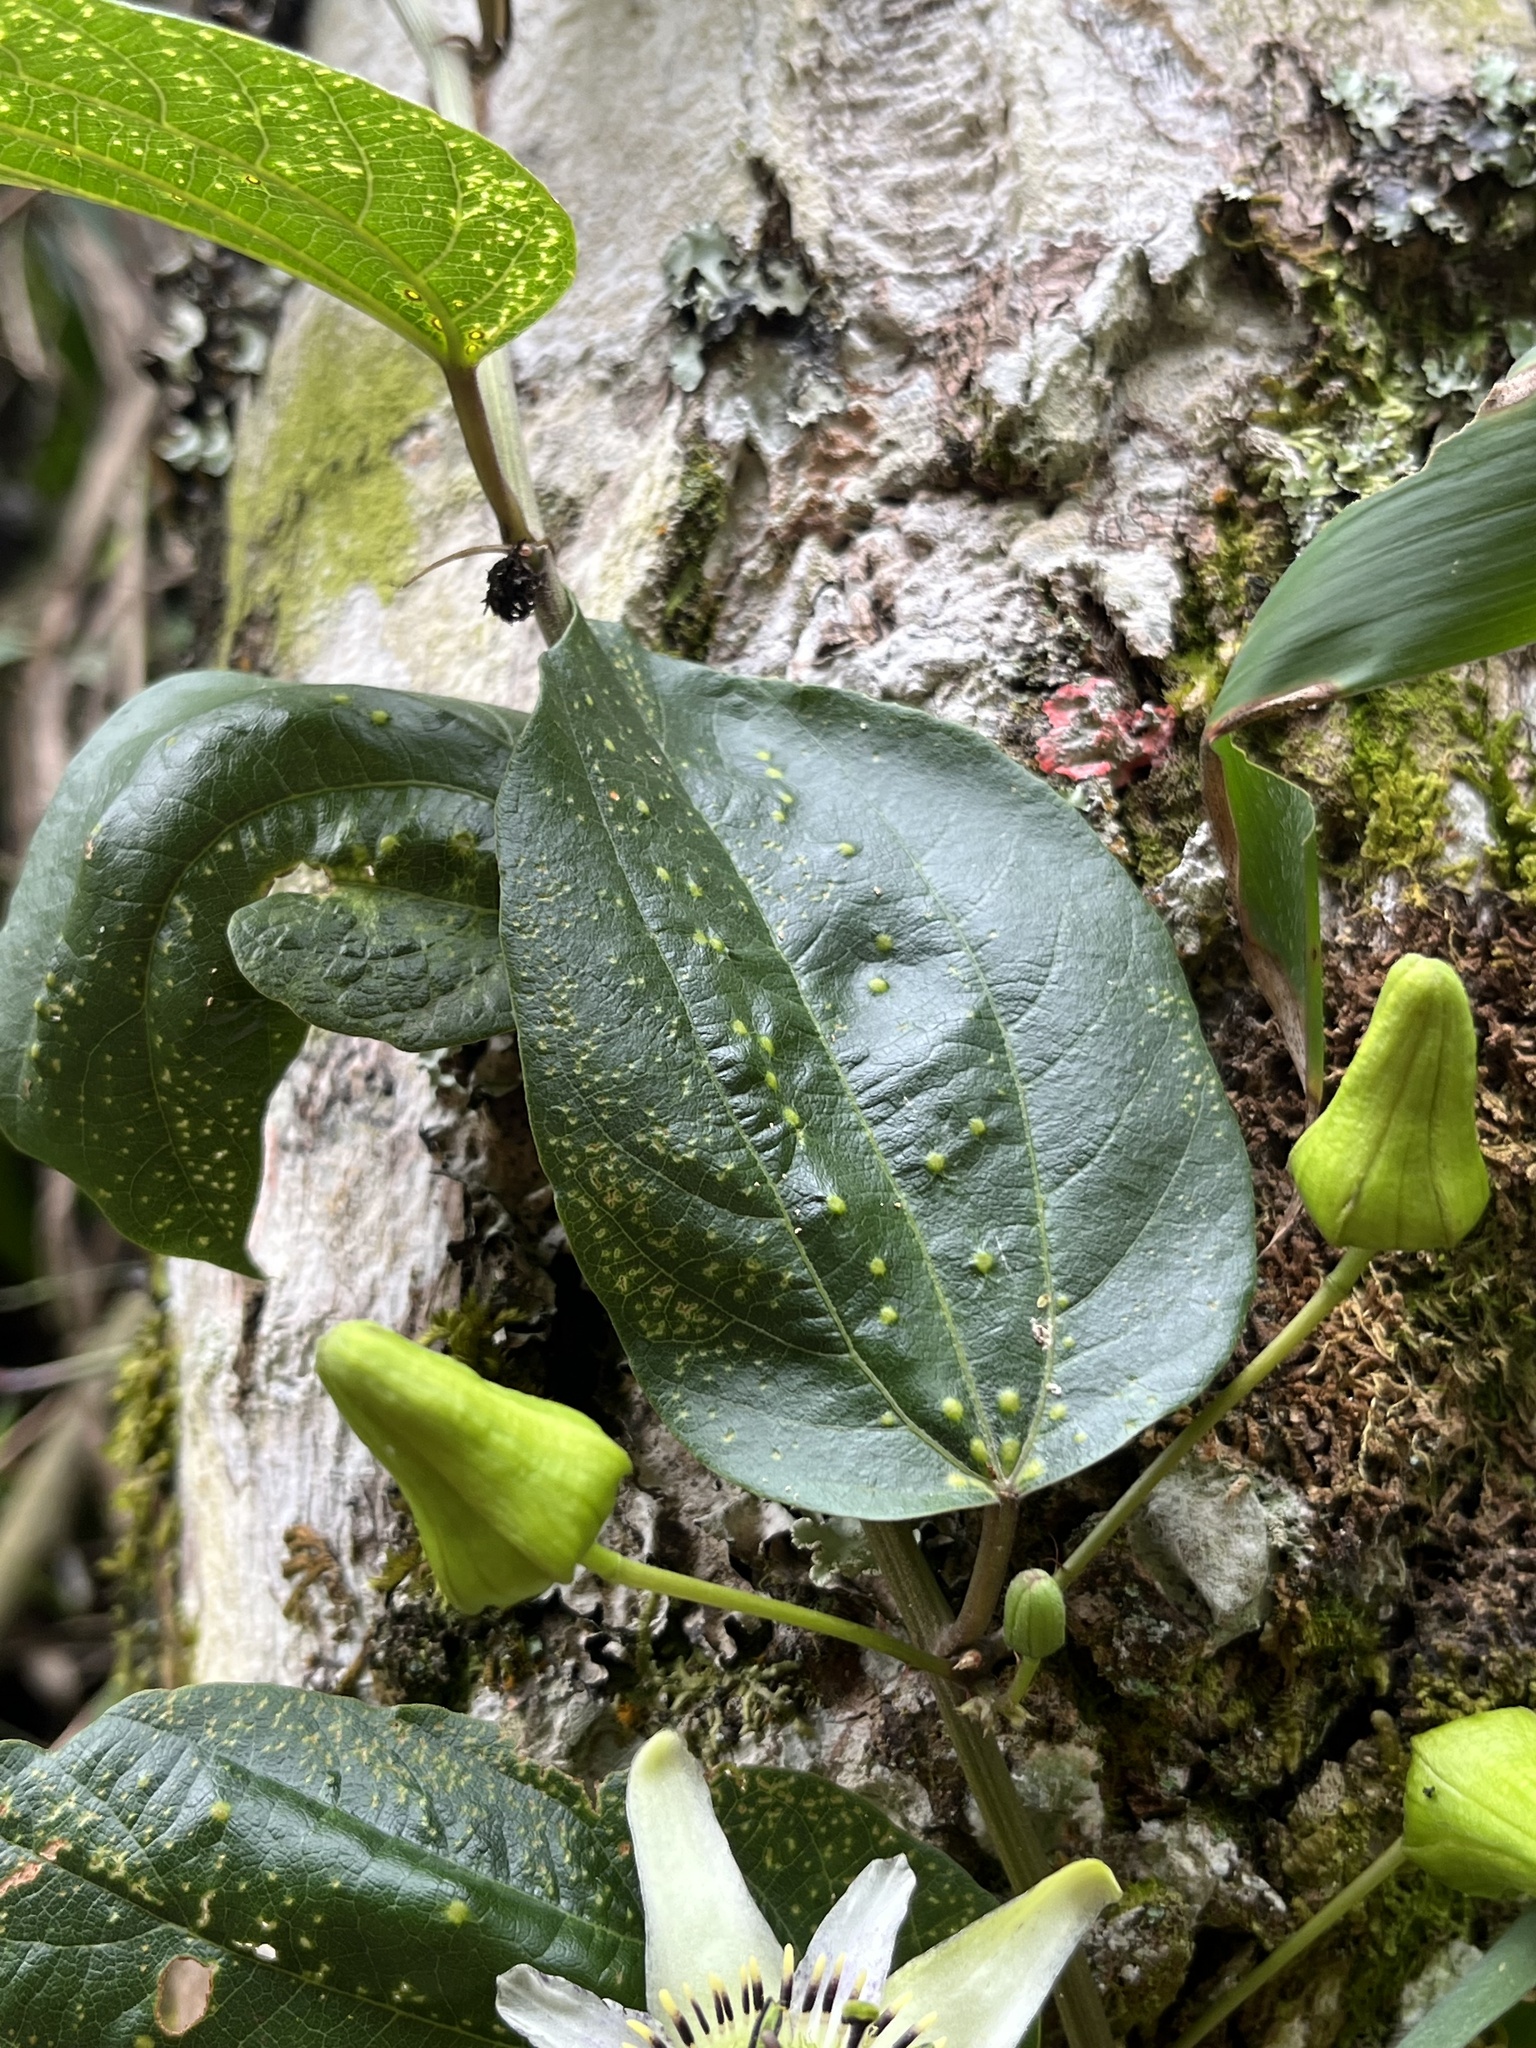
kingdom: Plantae
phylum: Tracheophyta
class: Magnoliopsida
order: Malpighiales
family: Passifloraceae
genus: Passiflora
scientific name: Passiflora cuspidifolia
